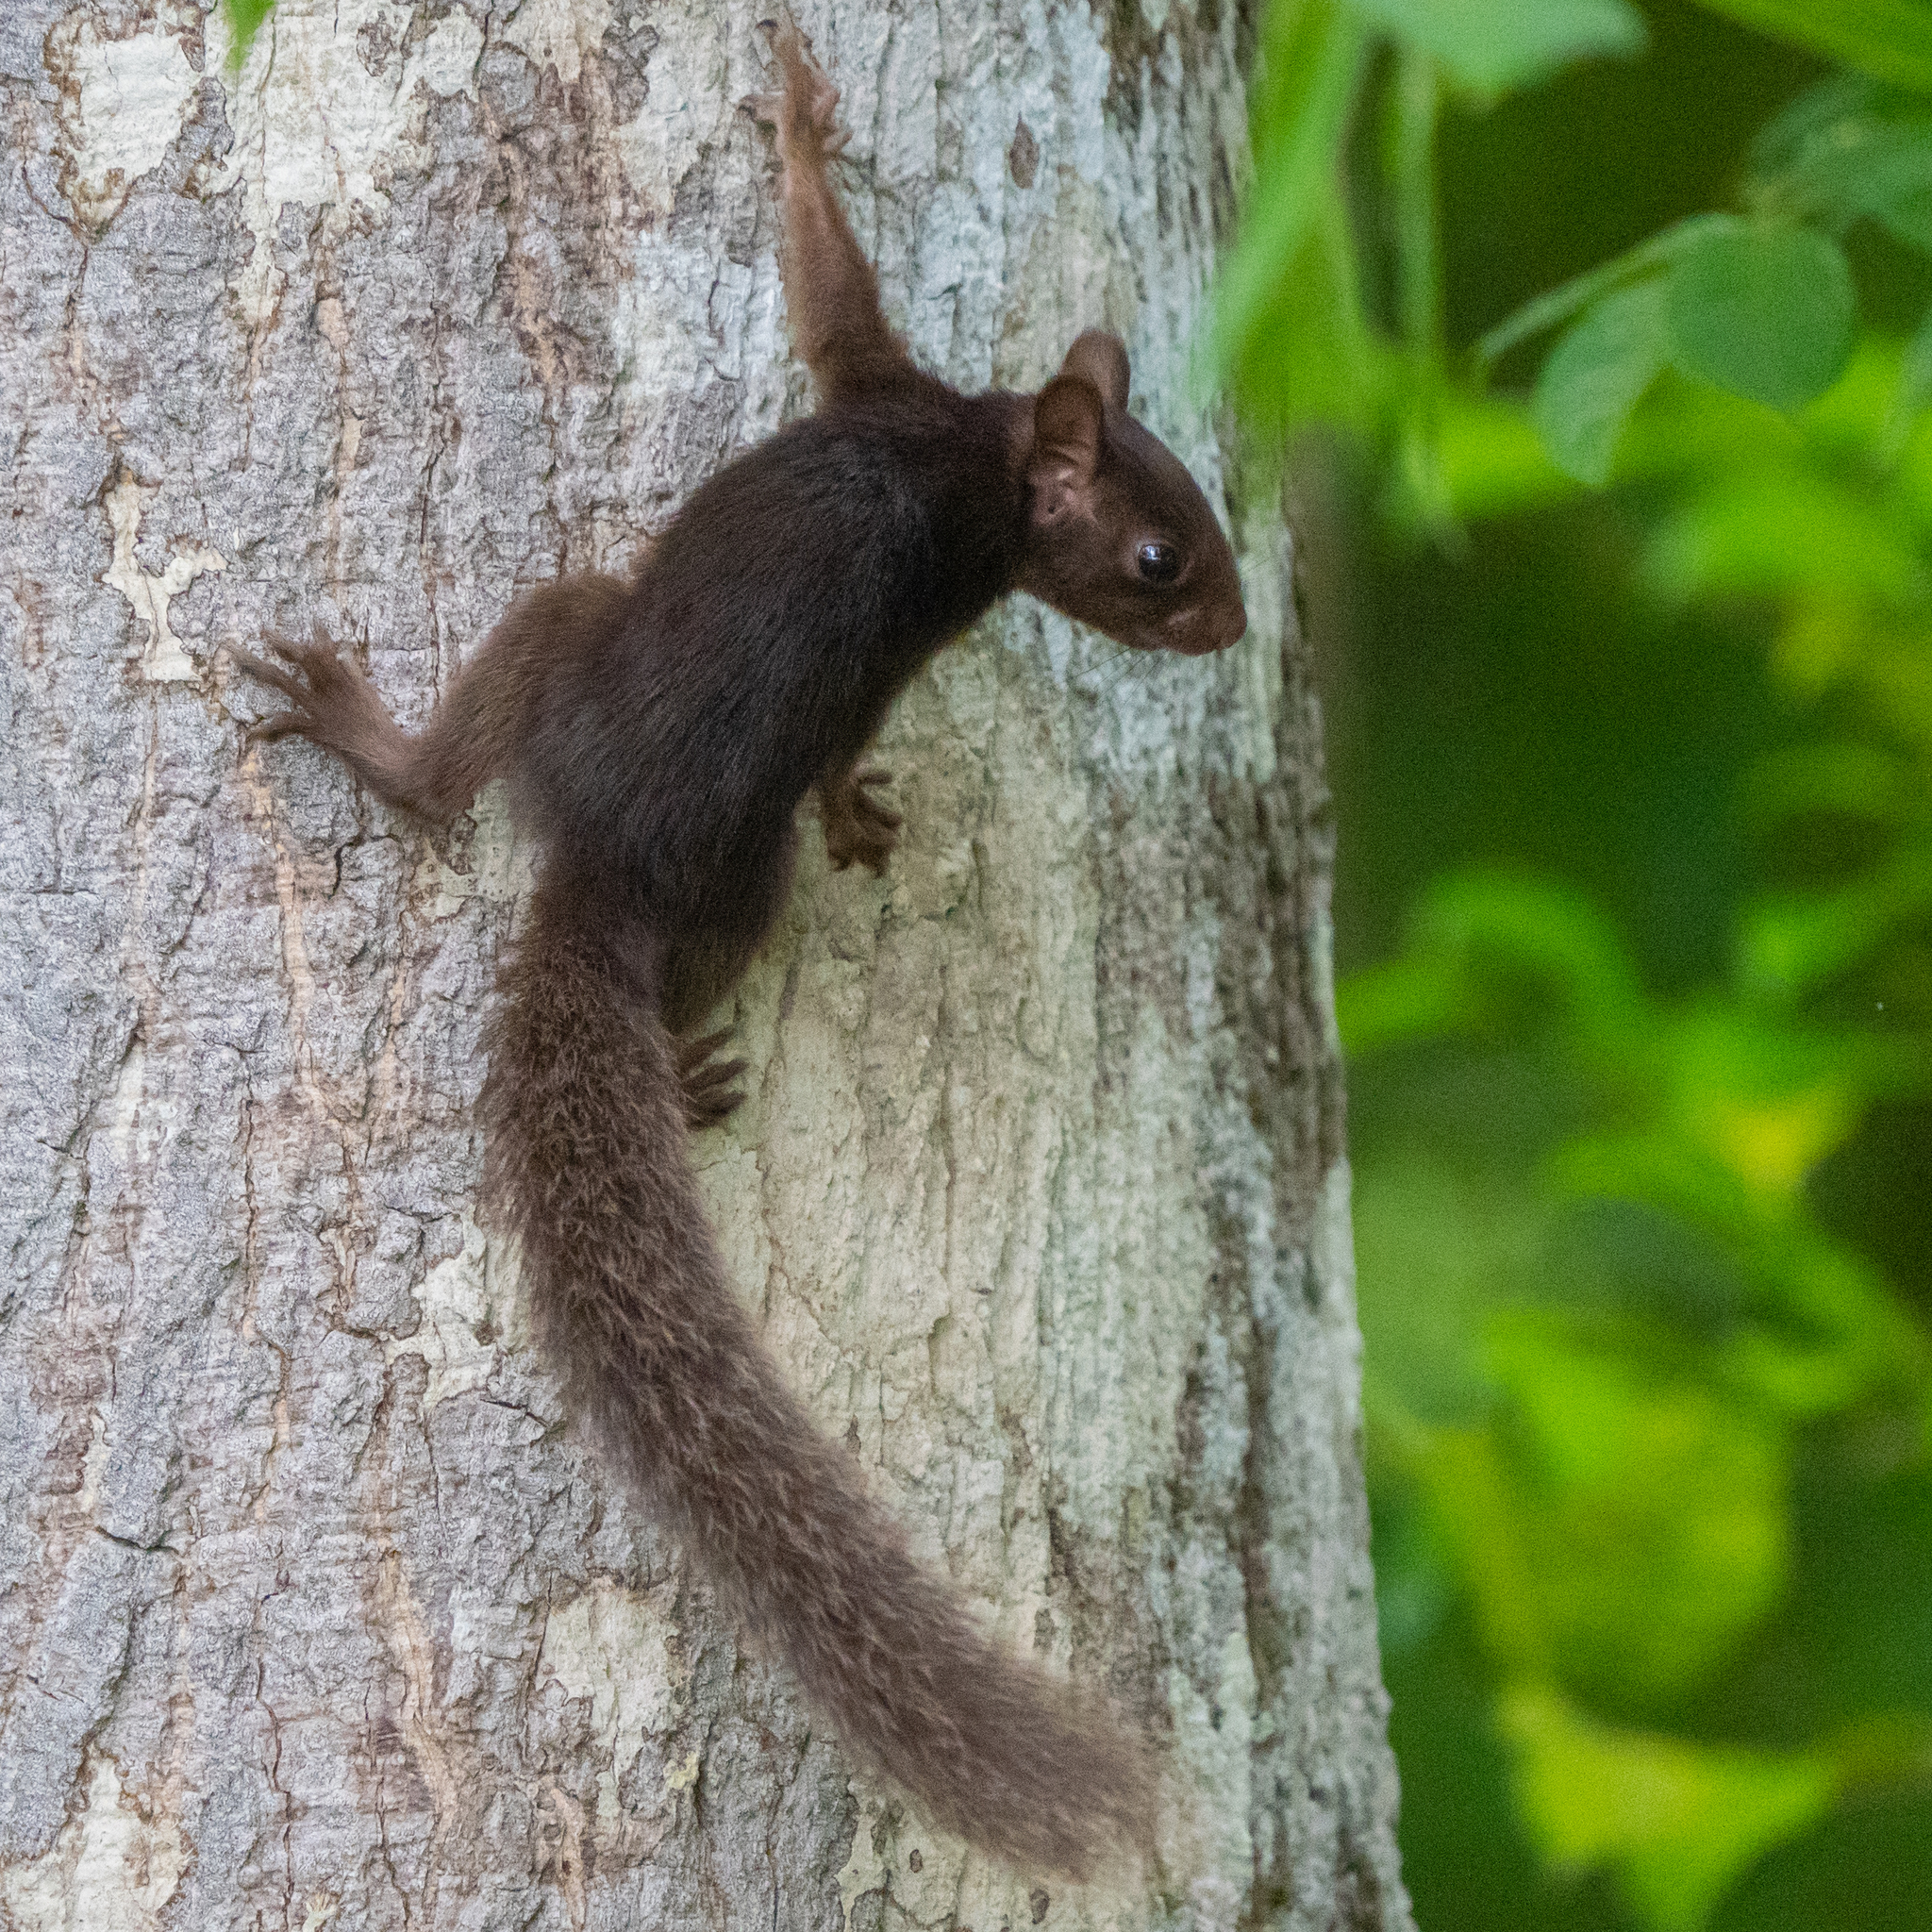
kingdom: Animalia
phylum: Chordata
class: Mammalia
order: Rodentia
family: Sciuridae
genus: Sciurus
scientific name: Sciurus variegatoides
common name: Variegated squirrel
